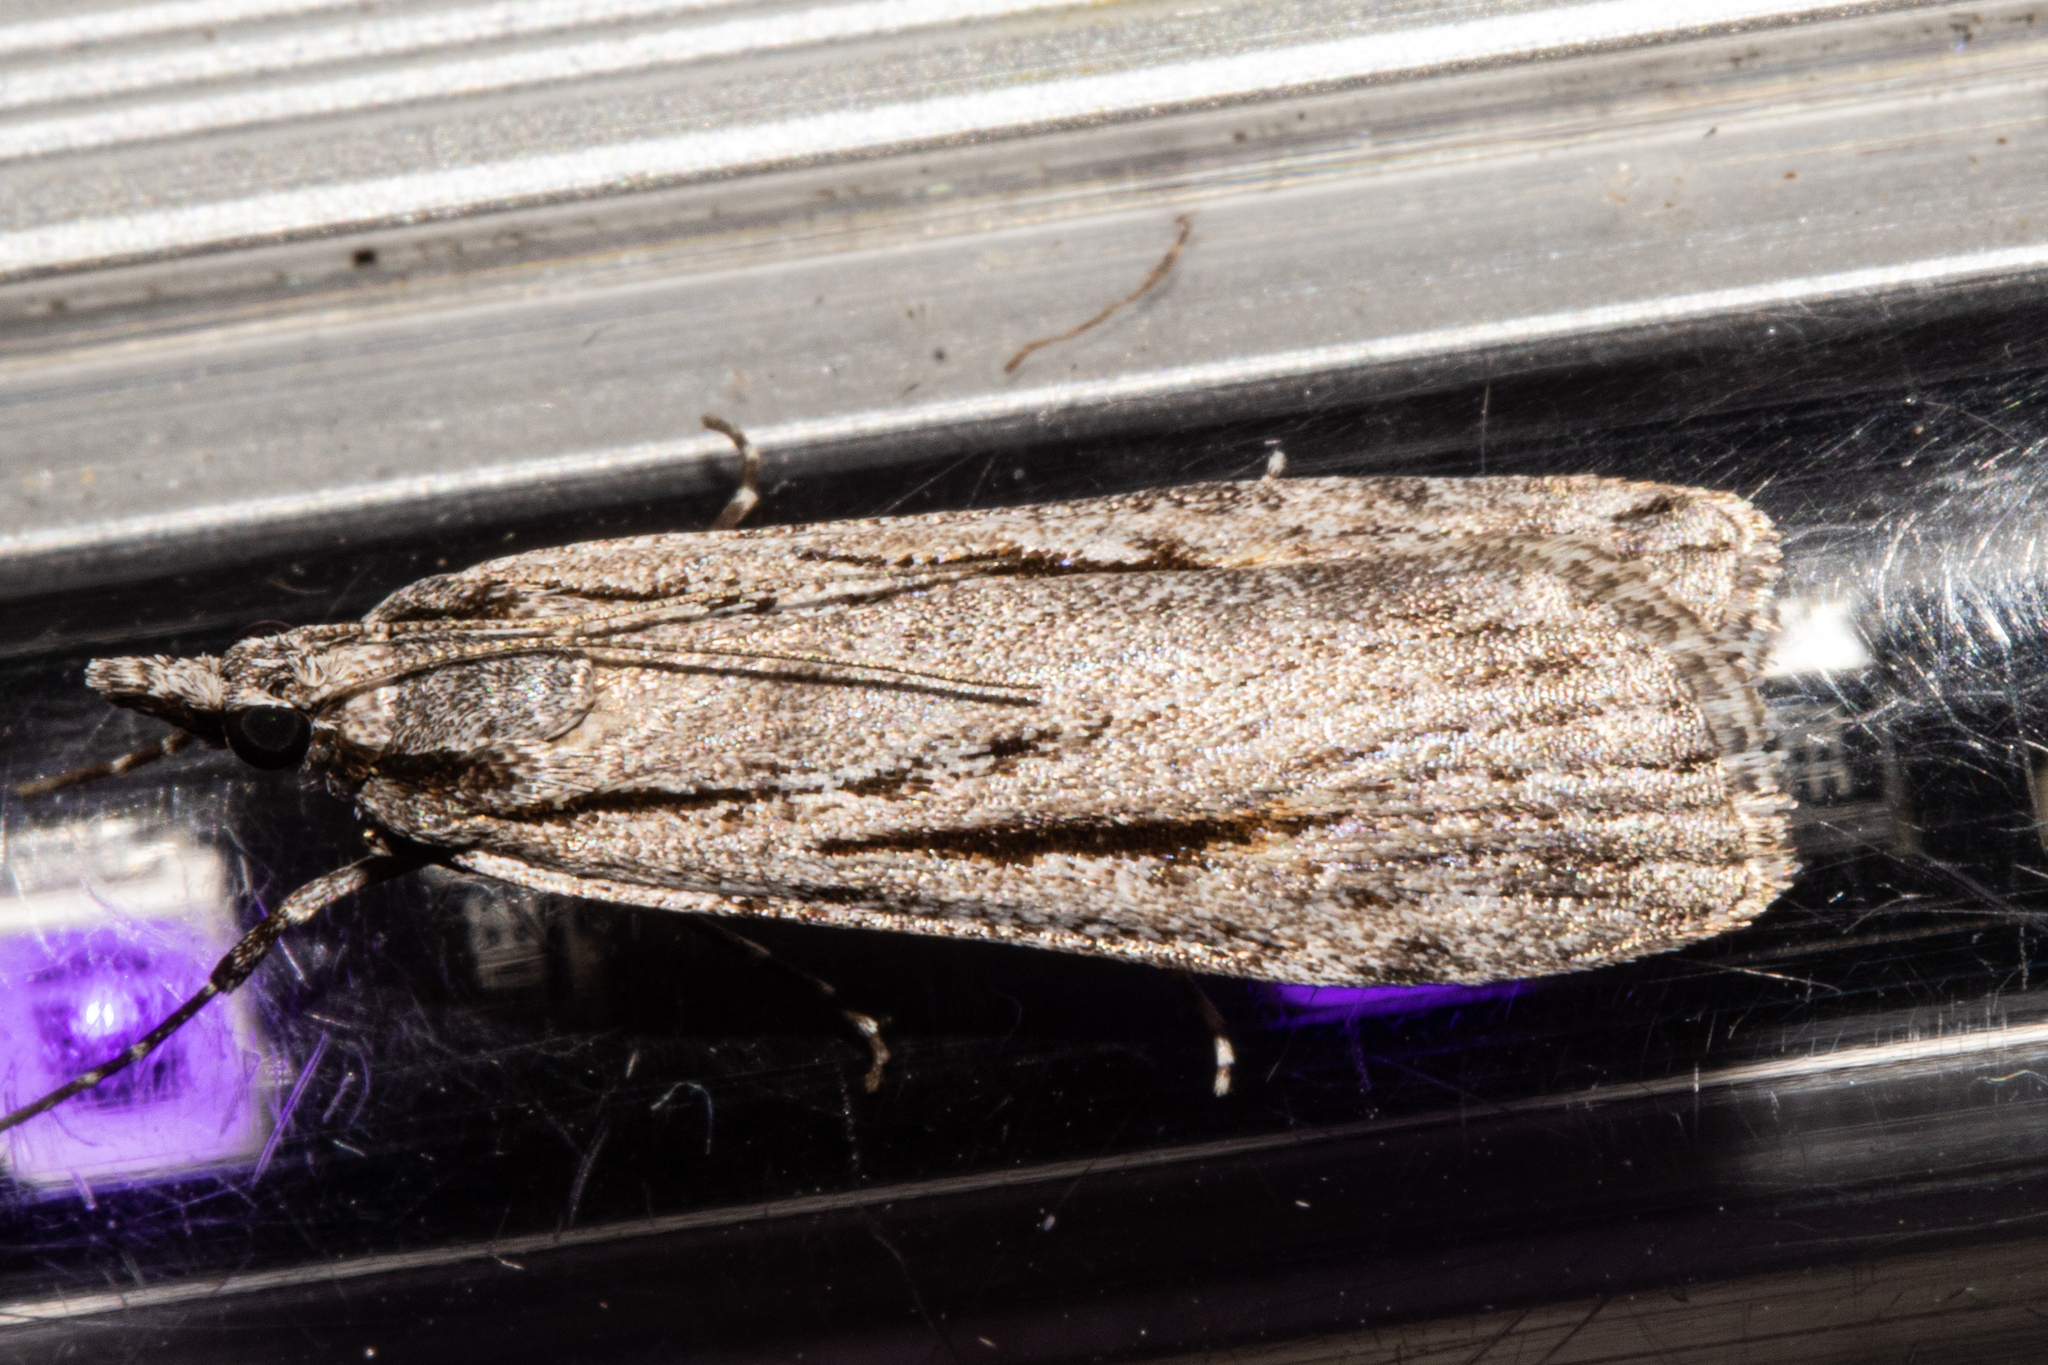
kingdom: Animalia
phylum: Arthropoda
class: Insecta
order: Lepidoptera
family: Crambidae
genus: Scoparia
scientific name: Scoparia indistinctalis
